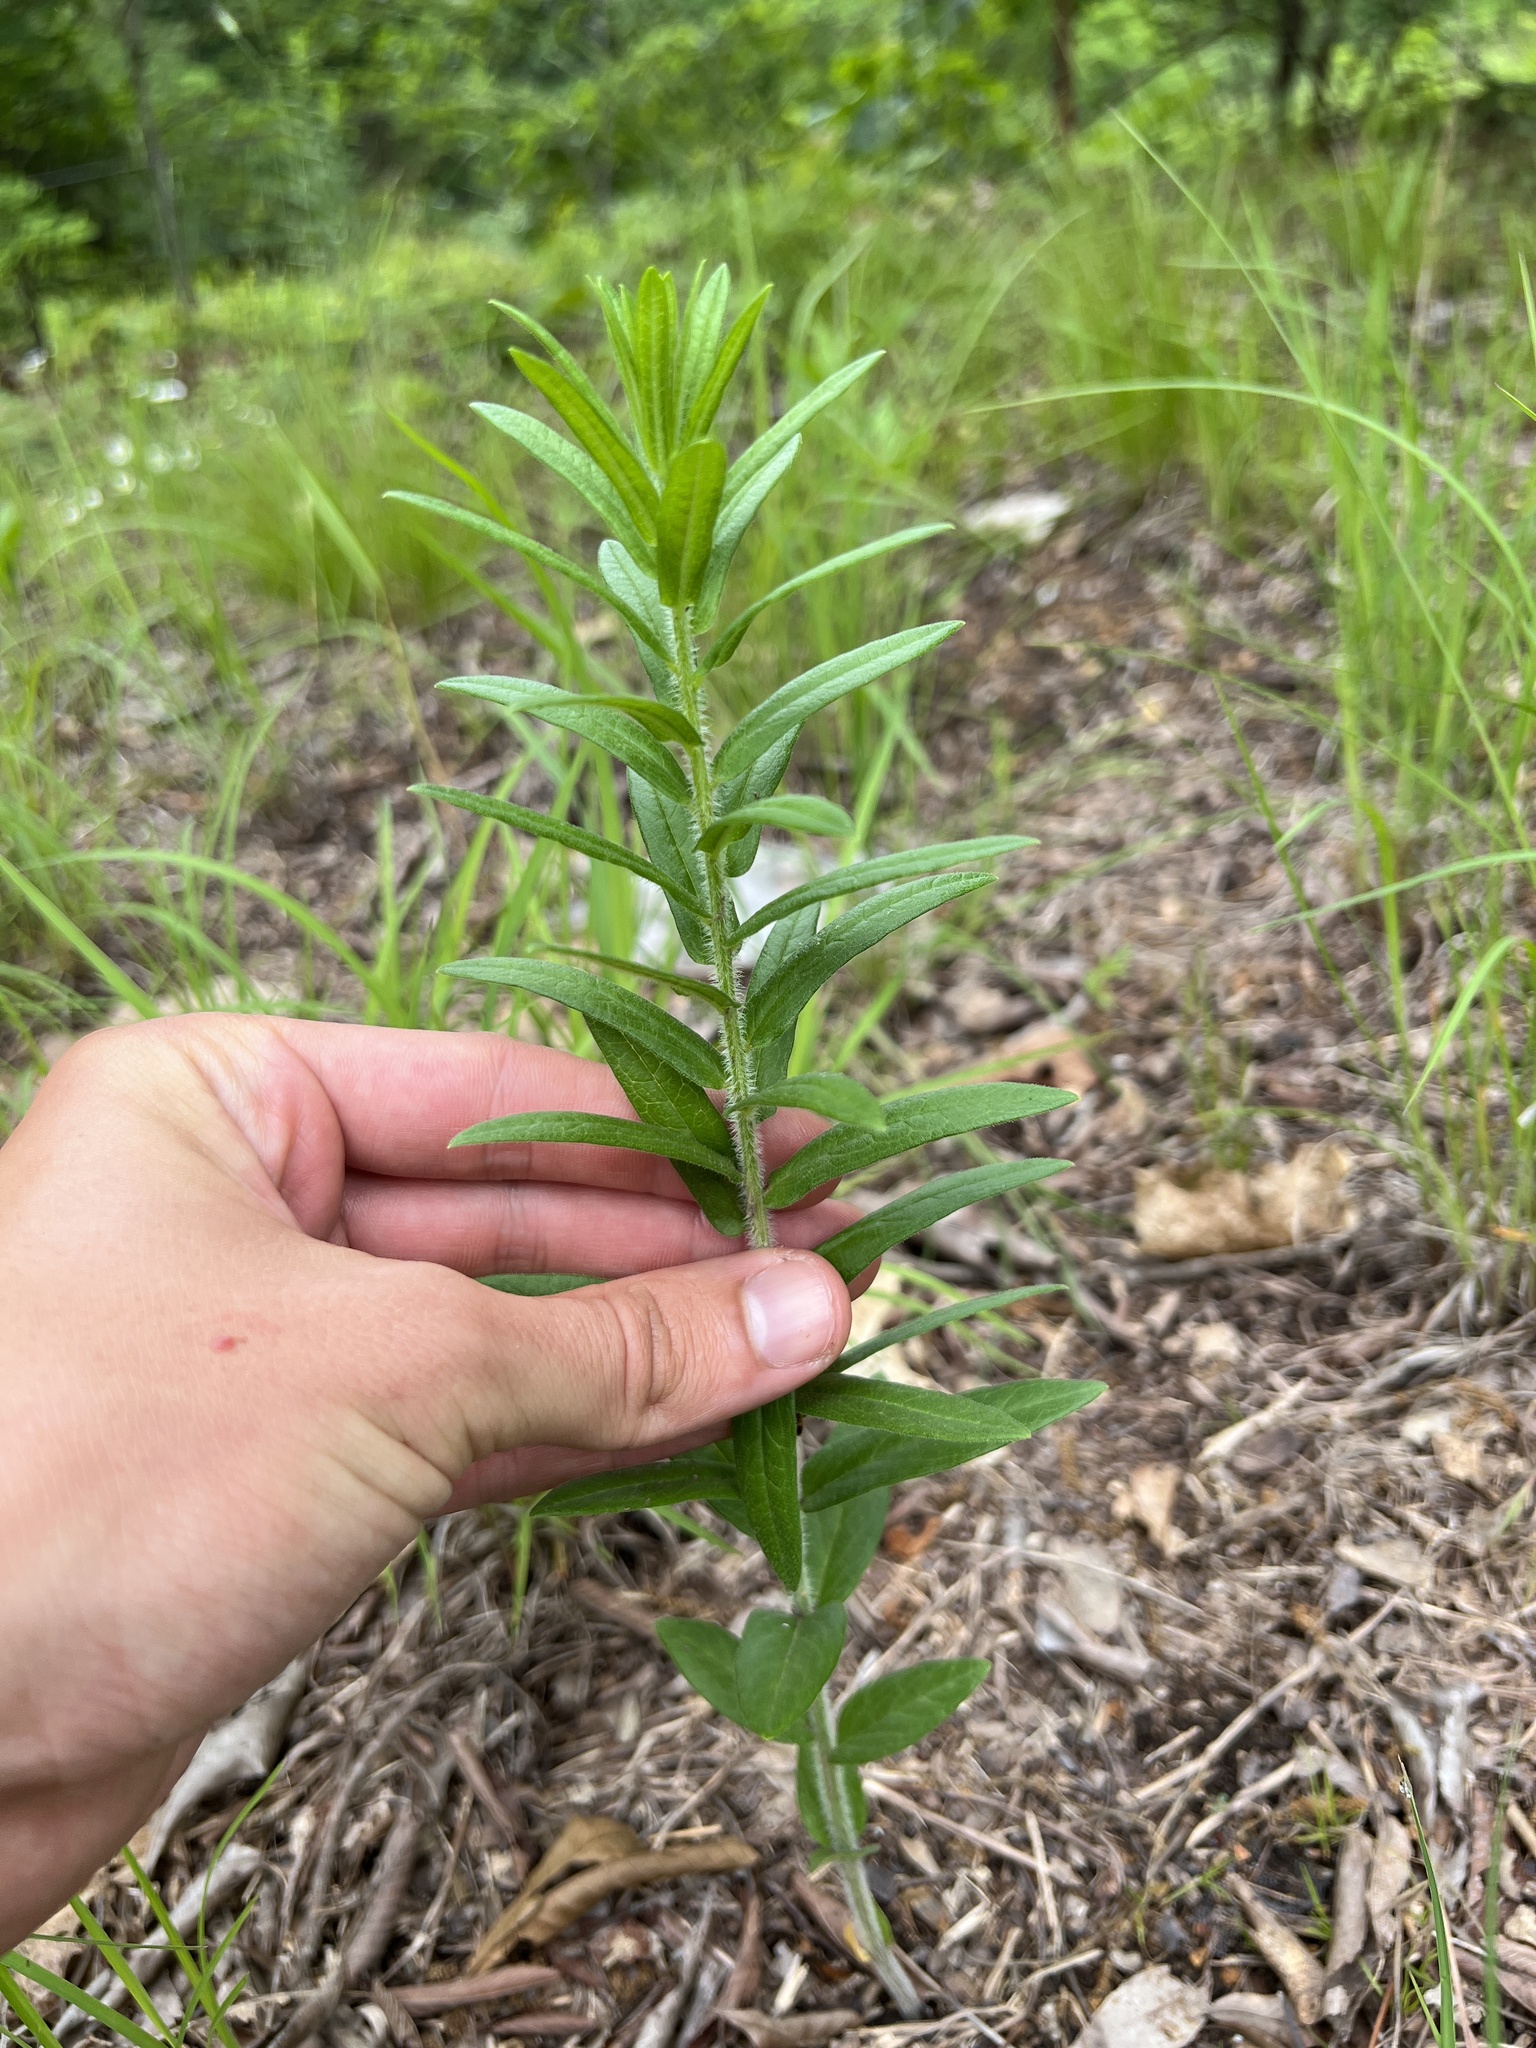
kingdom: Plantae
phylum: Tracheophyta
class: Magnoliopsida
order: Gentianales
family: Apocynaceae
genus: Asclepias
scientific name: Asclepias tuberosa
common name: Butterfly milkweed
